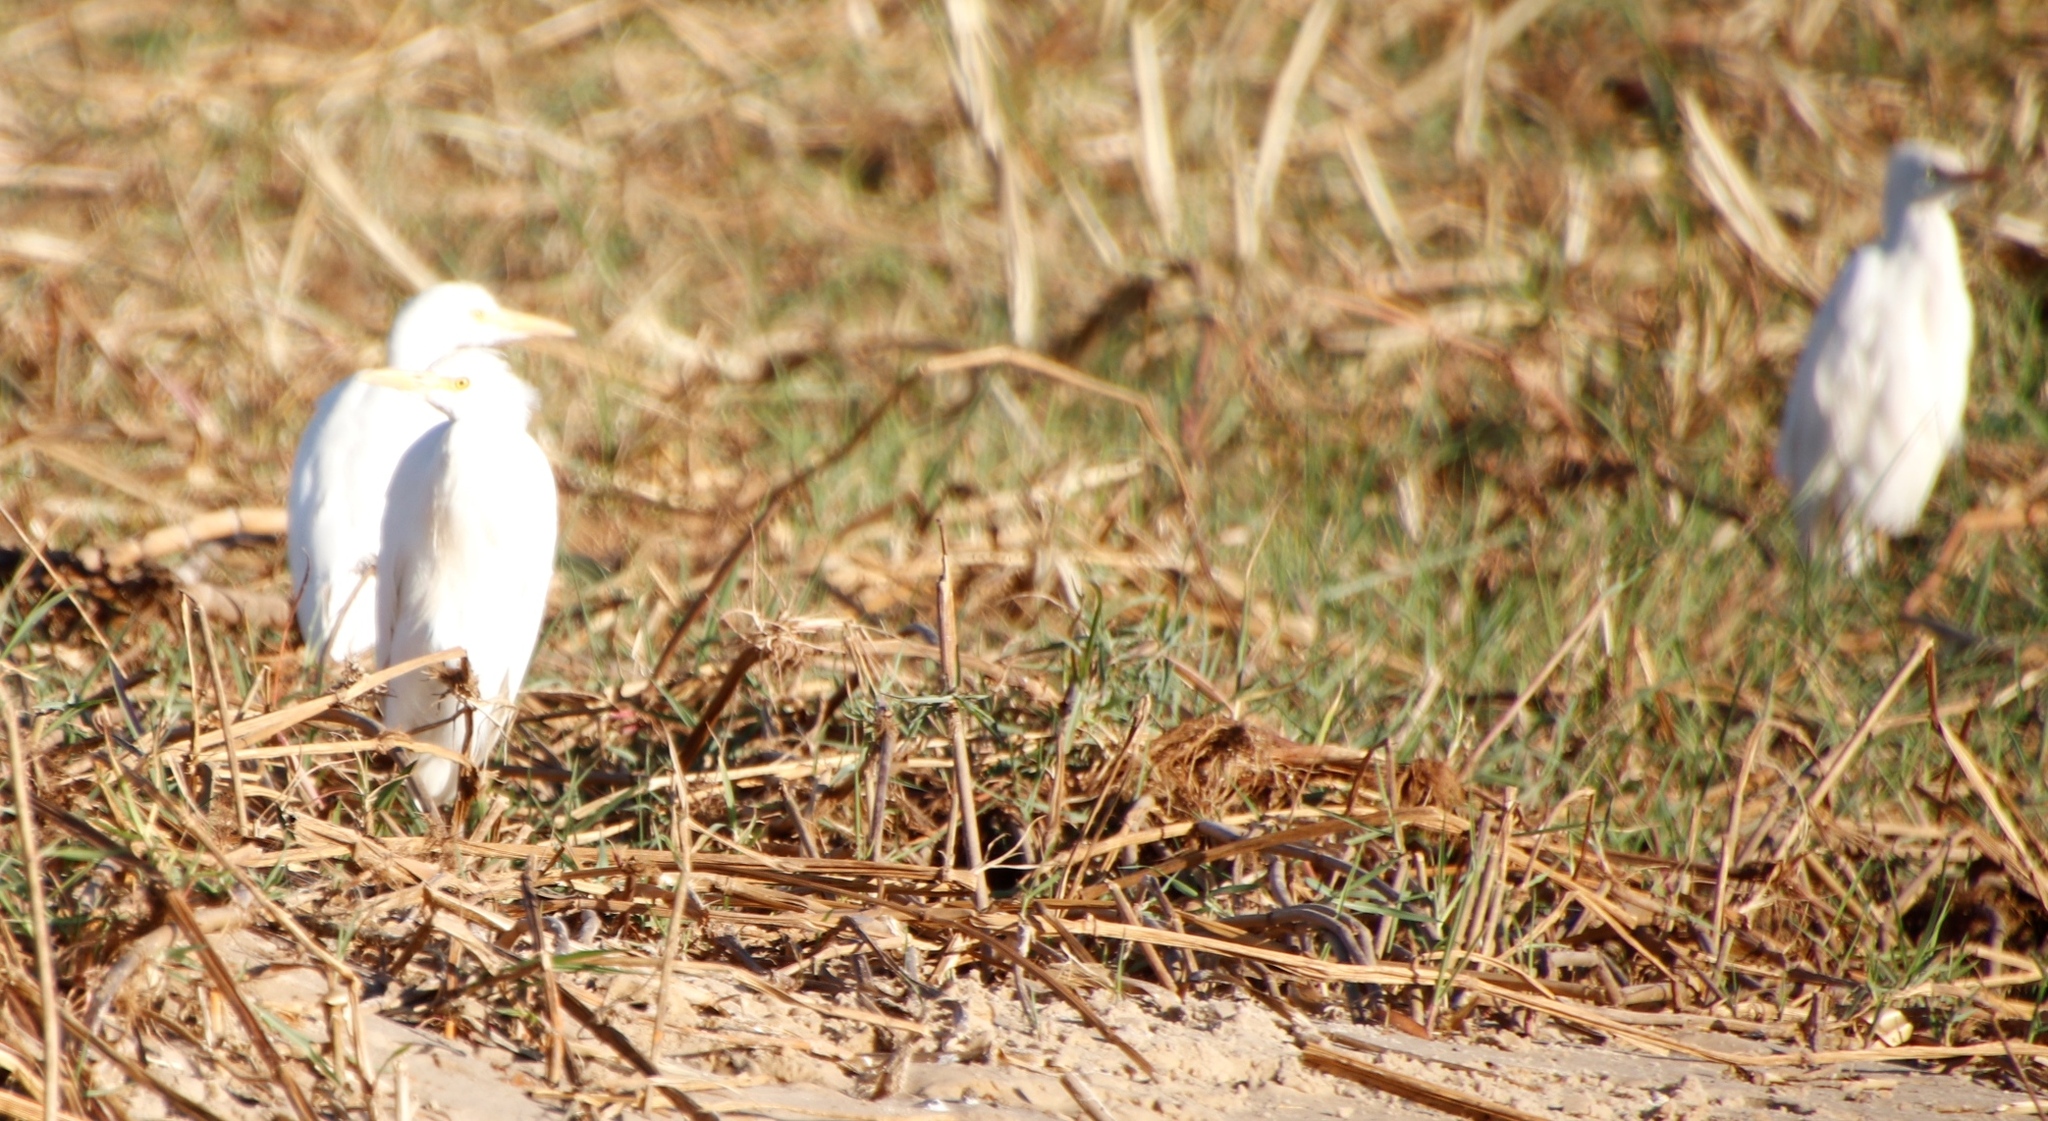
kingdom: Animalia
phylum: Chordata
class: Aves
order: Pelecaniformes
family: Ardeidae
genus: Bubulcus
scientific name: Bubulcus ibis
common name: Cattle egret
